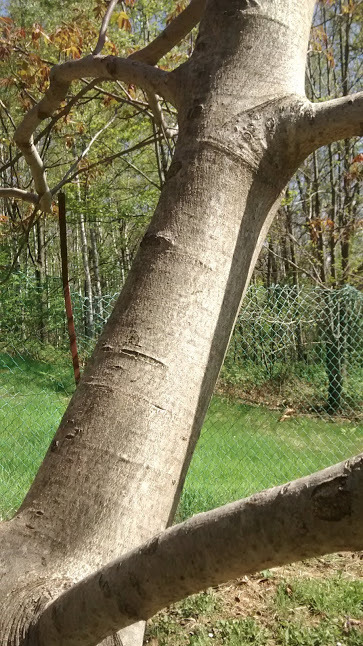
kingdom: Plantae
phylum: Tracheophyta
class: Magnoliopsida
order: Fagales
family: Juglandaceae
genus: Juglans
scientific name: Juglans regia
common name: Walnut
